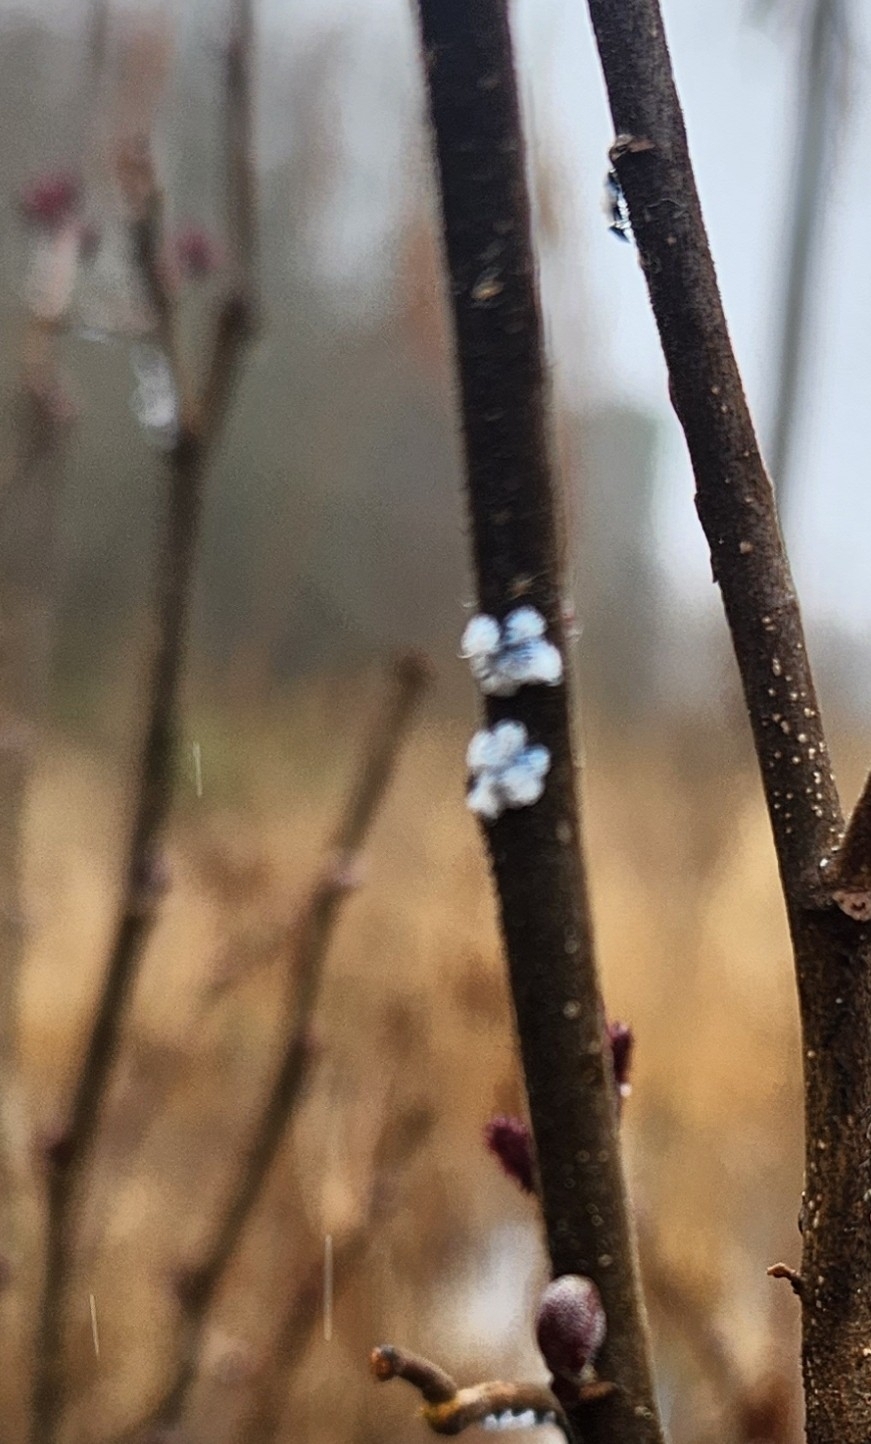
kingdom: Animalia
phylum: Arthropoda
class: Insecta
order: Hemiptera
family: Aphididae
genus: Prociphilus
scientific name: Prociphilus tessellatus
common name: Woolly alder aphid
